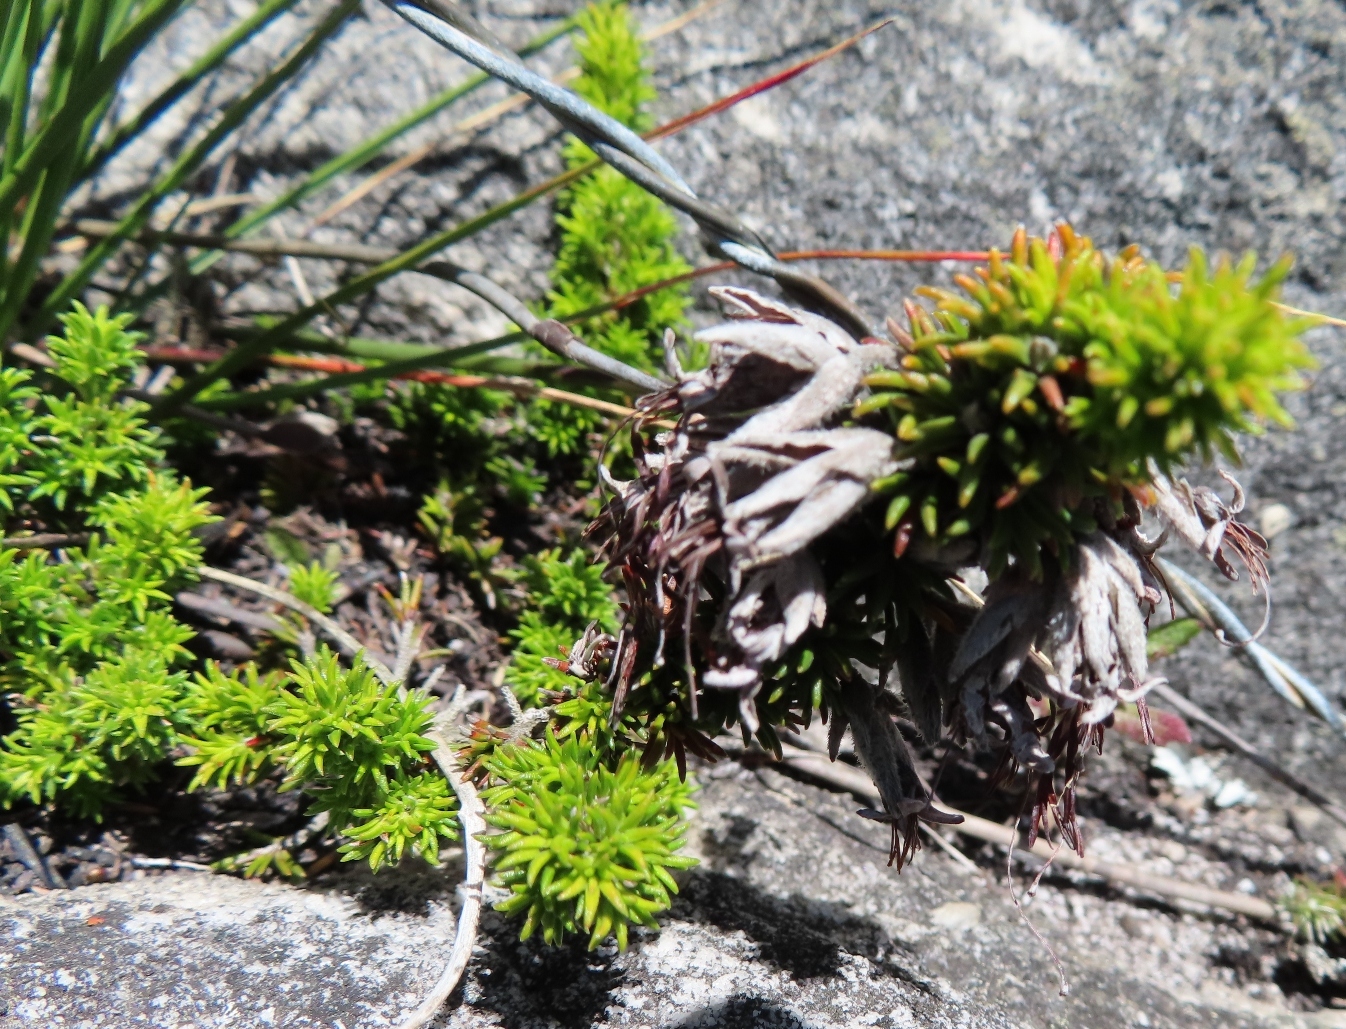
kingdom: Plantae
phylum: Tracheophyta
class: Magnoliopsida
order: Ericales
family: Ericaceae
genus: Erica
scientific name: Erica banksia
